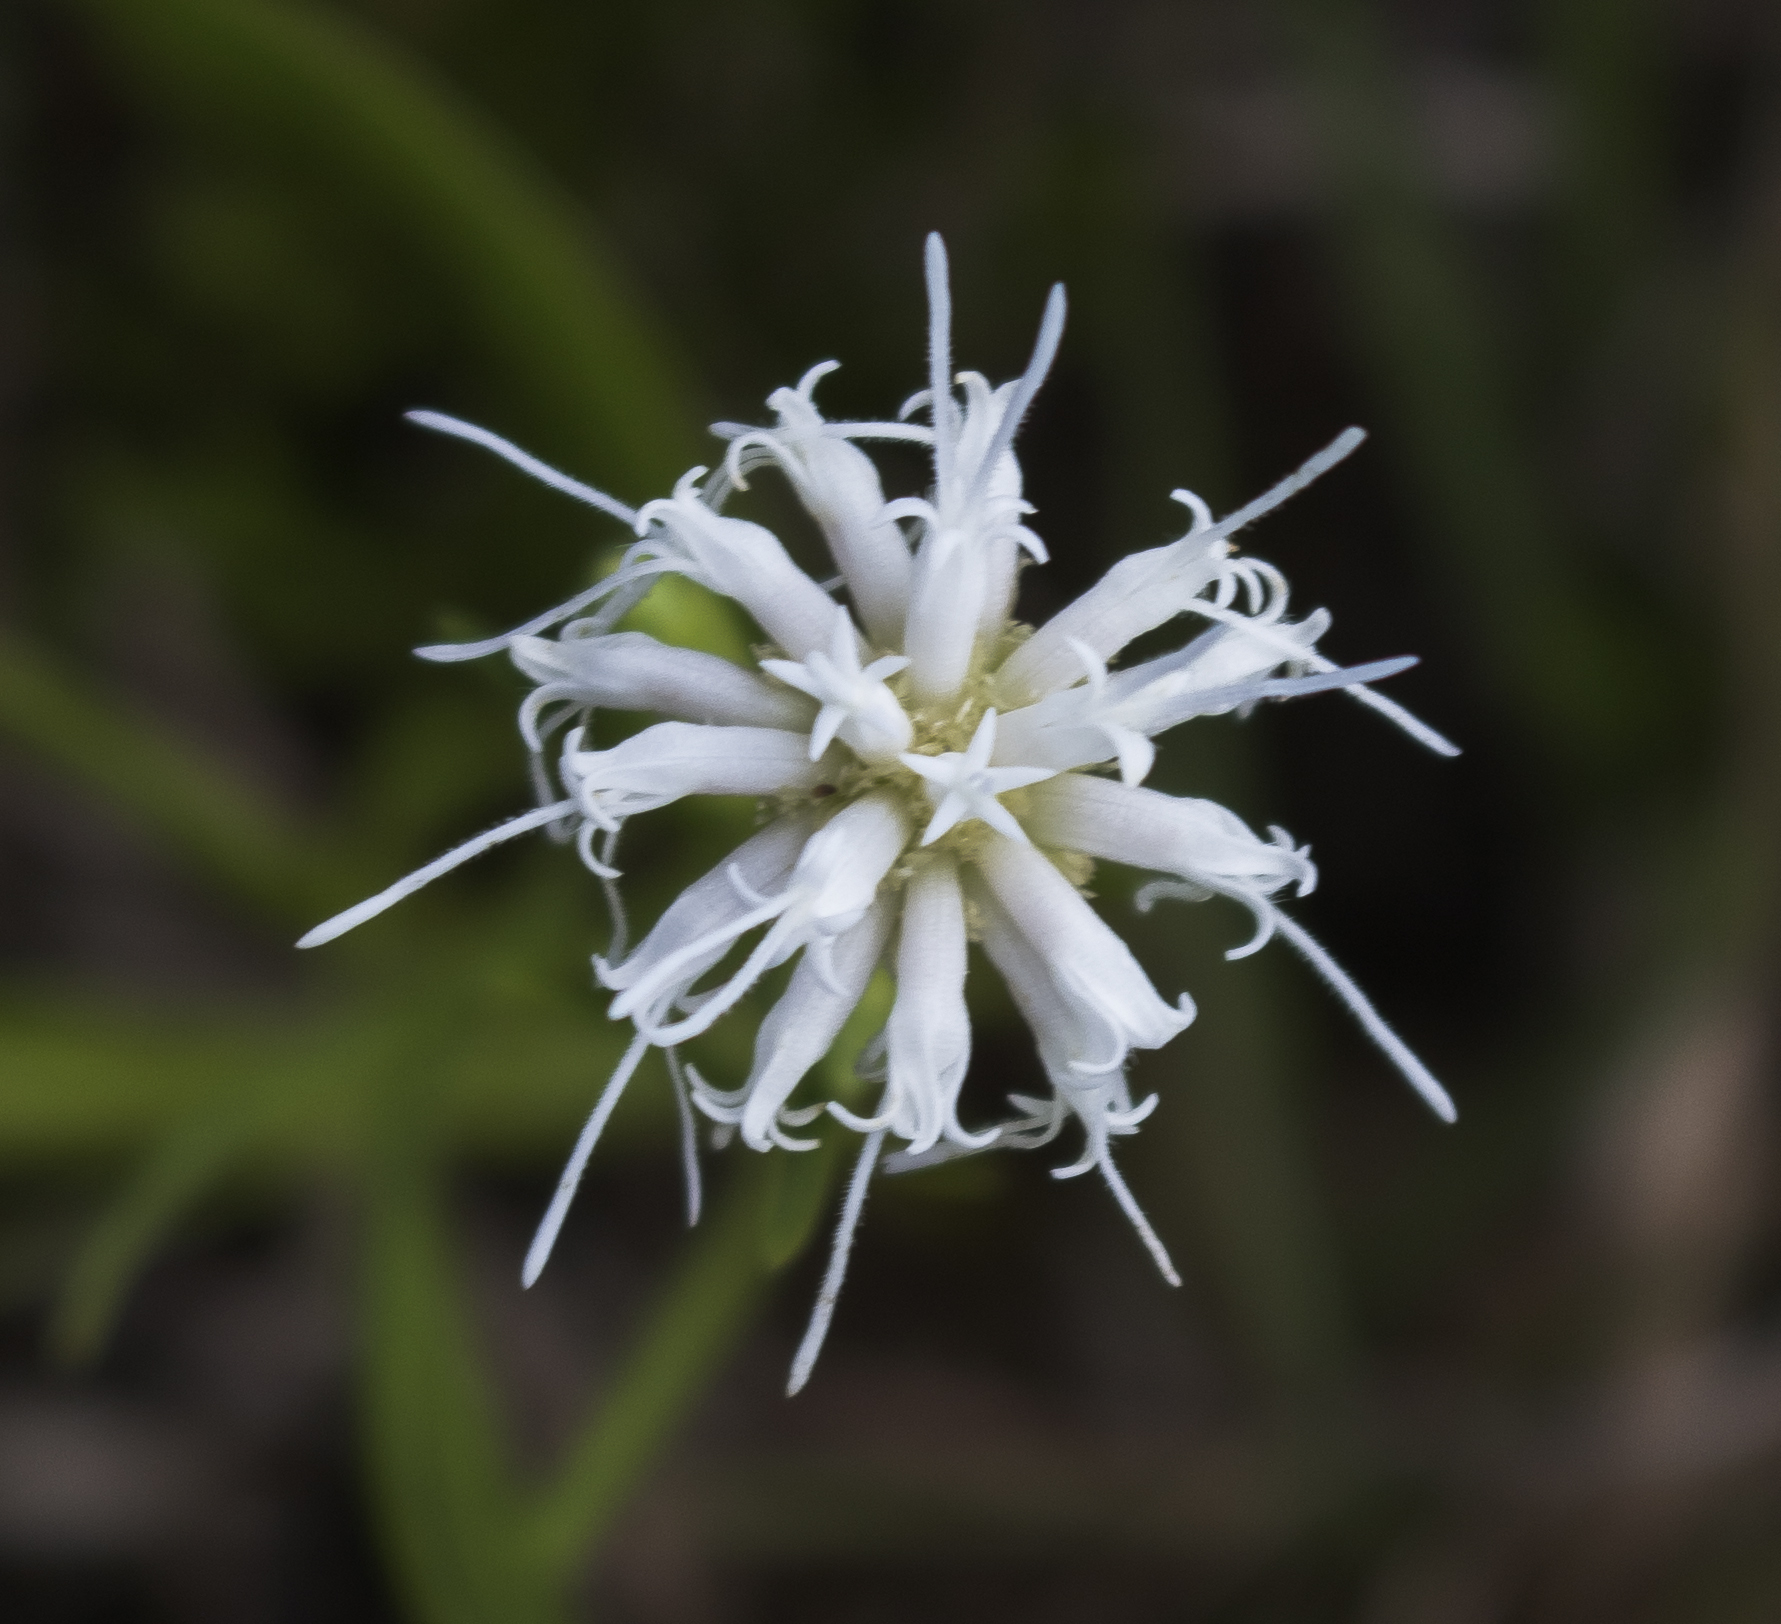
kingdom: Plantae
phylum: Tracheophyta
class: Magnoliopsida
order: Asterales
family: Asteraceae
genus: Liatris
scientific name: Liatris cylindracea
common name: Few-head blazingstar
